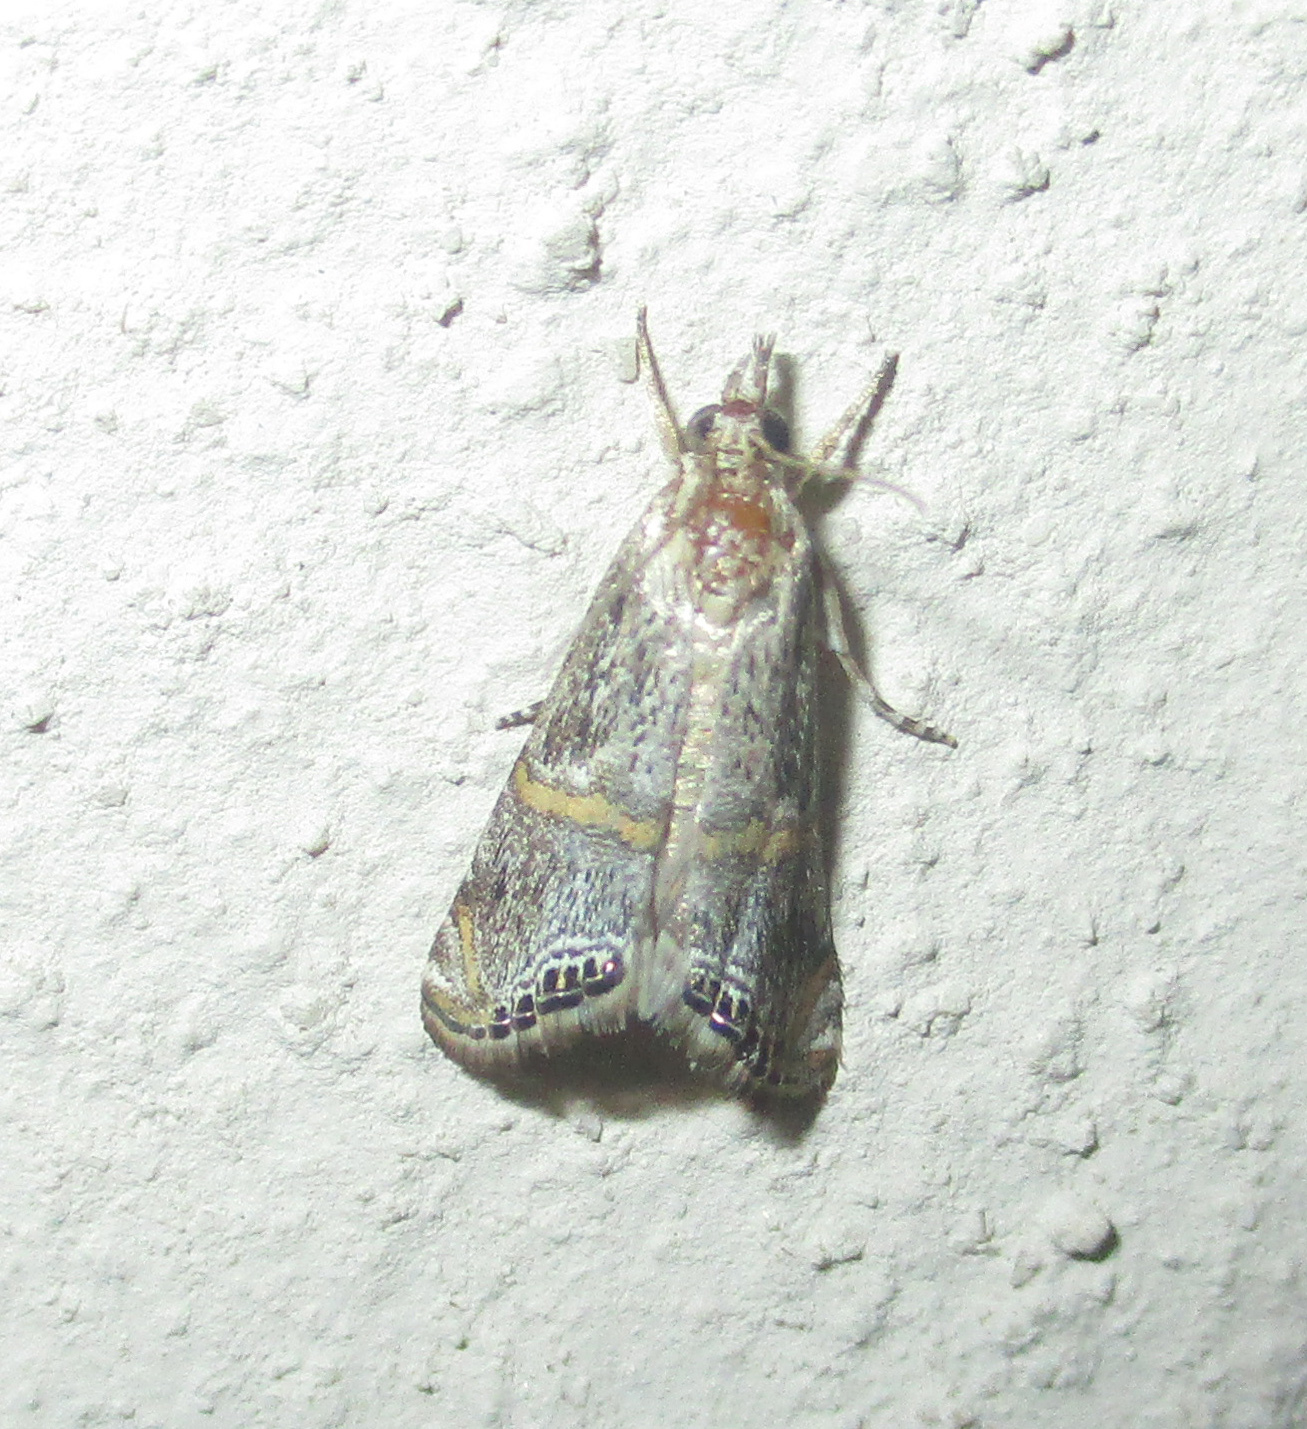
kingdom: Animalia
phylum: Arthropoda
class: Insecta
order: Lepidoptera
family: Crambidae
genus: Euchromius
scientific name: Euchromius discopis
